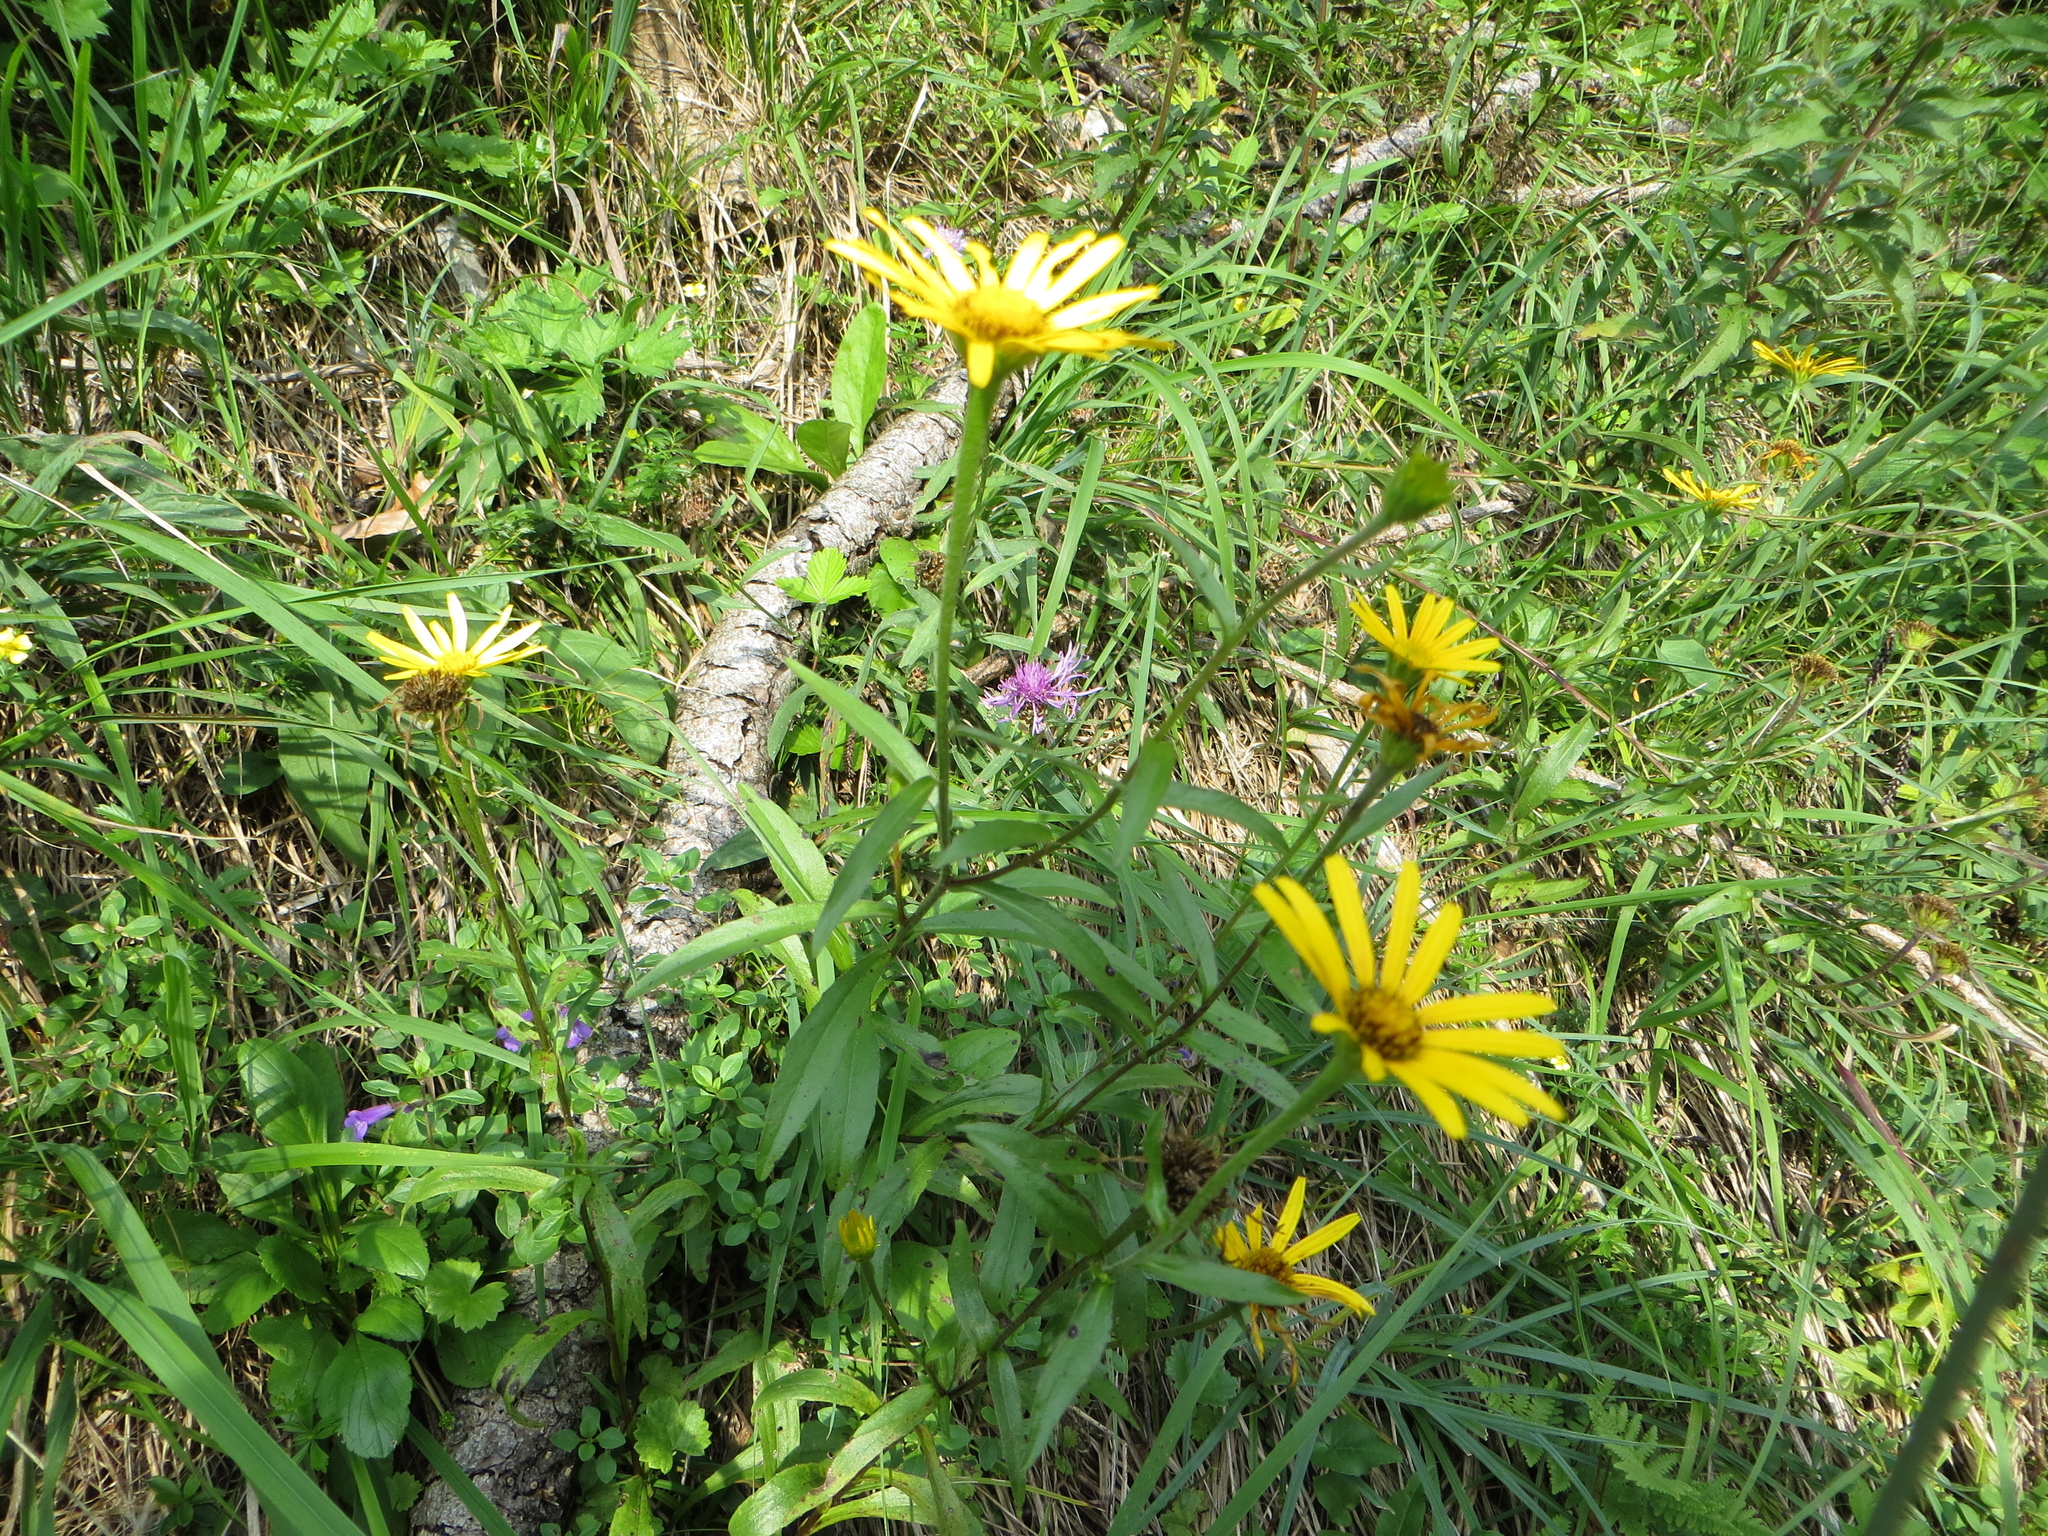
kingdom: Plantae
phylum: Tracheophyta
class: Magnoliopsida
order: Asterales
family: Asteraceae
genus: Buphthalmum
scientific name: Buphthalmum salicifolium
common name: Willow-leaved yellow-oxeye
